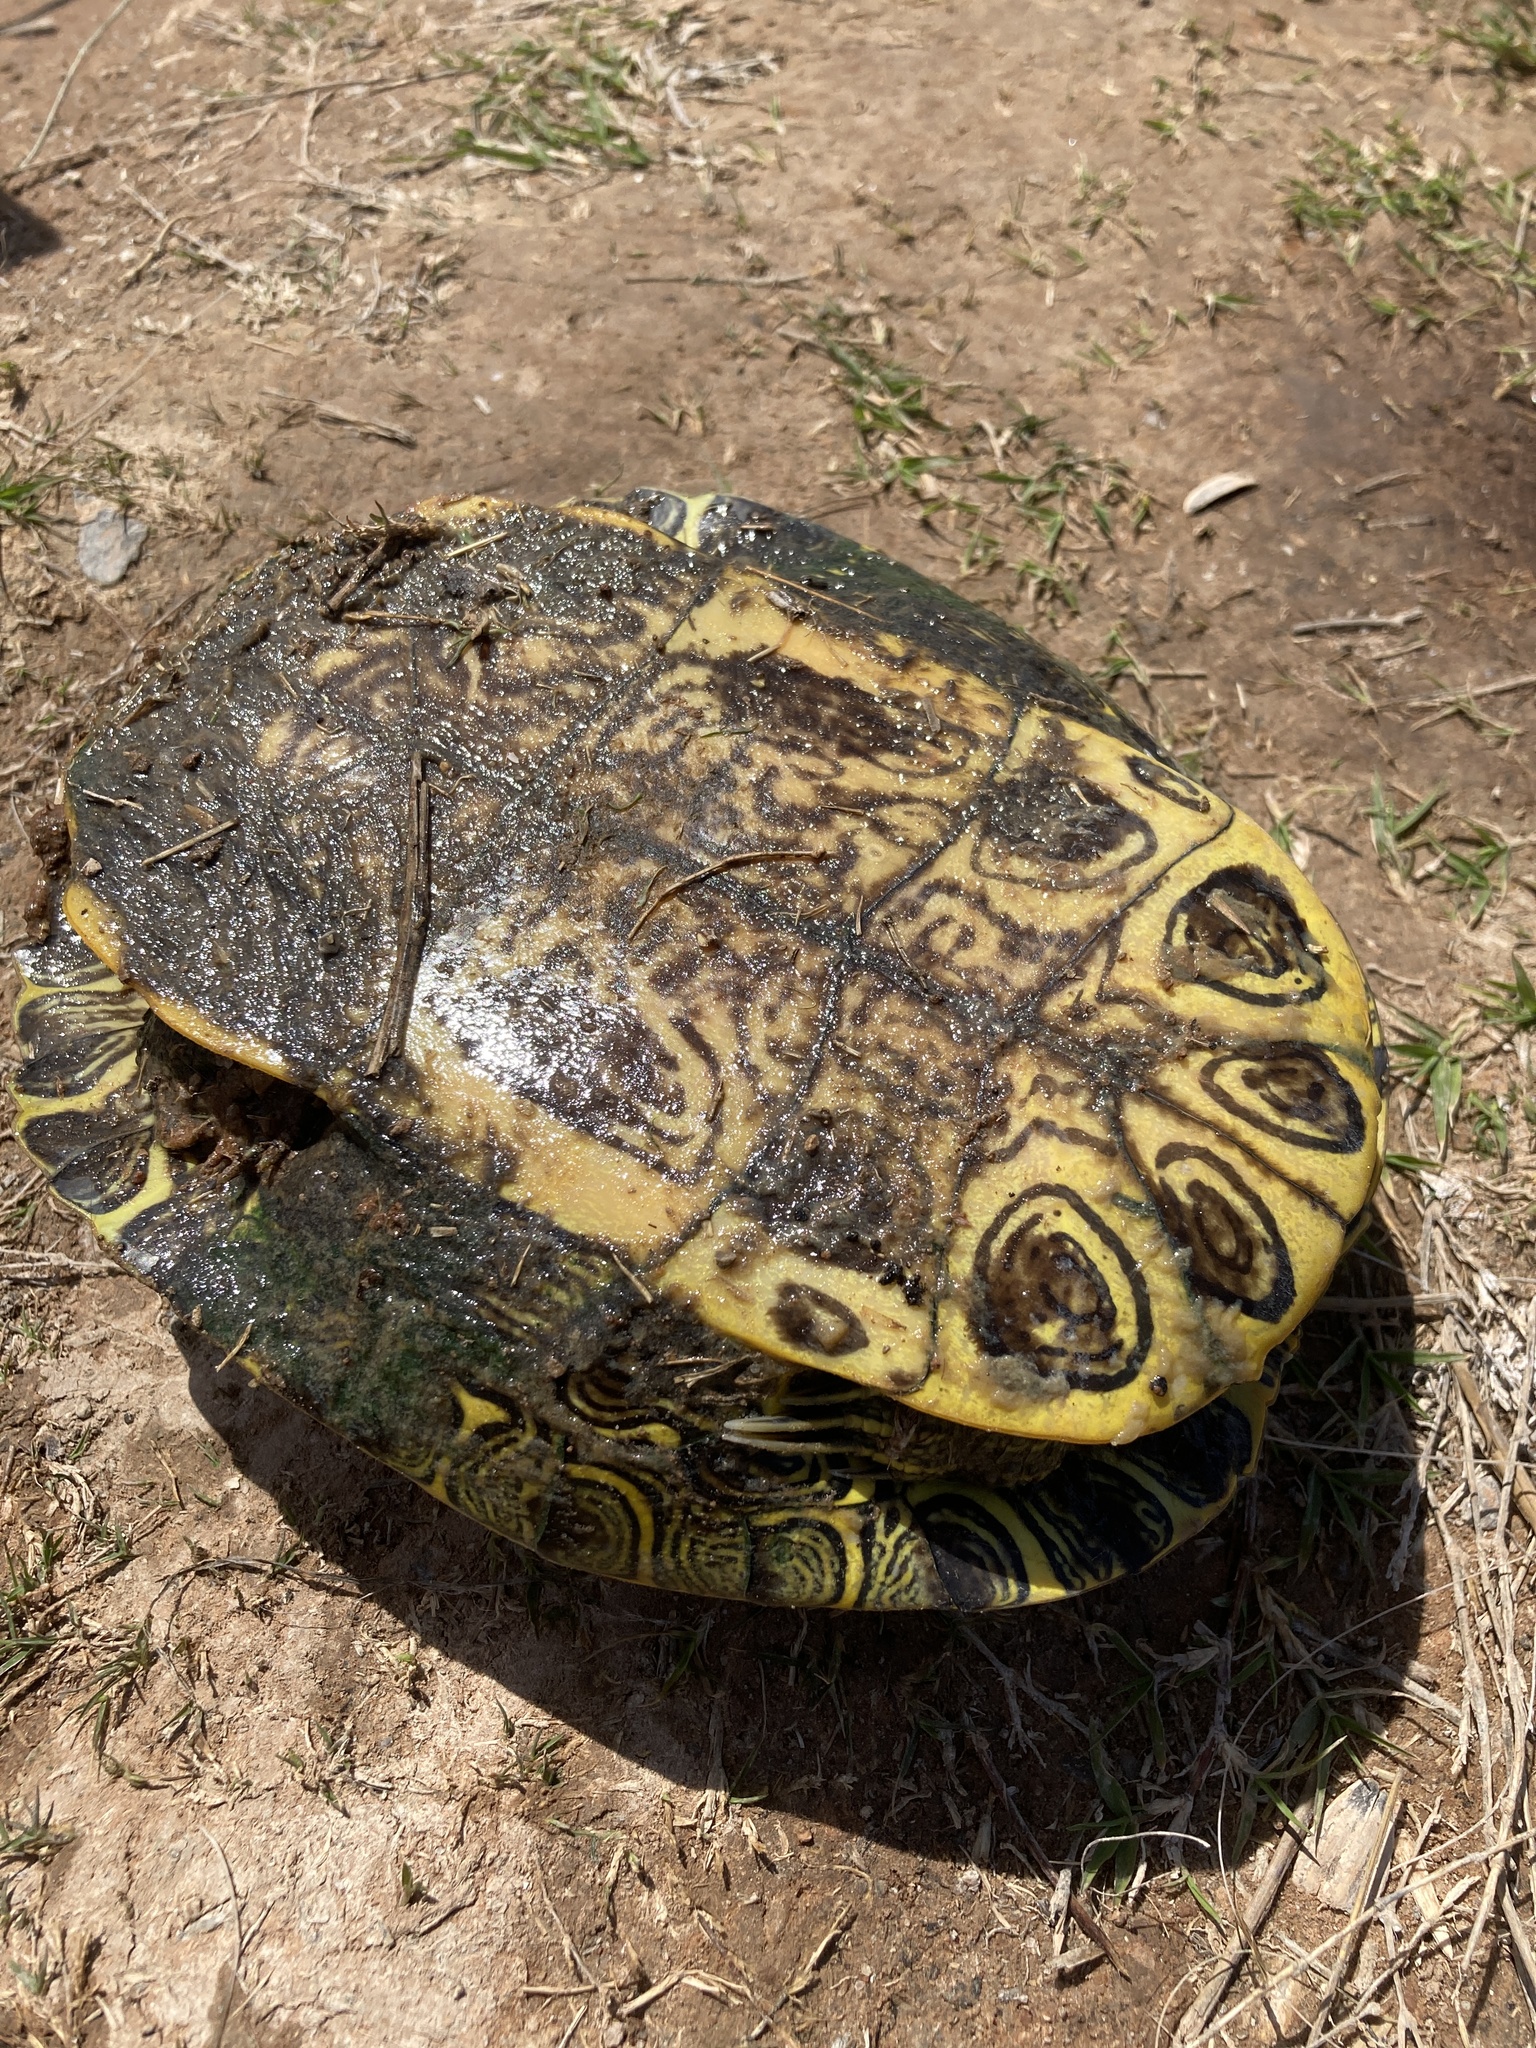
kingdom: Animalia
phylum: Chordata
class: Testudines
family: Emydidae
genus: Trachemys
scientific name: Trachemys scripta
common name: Slider
